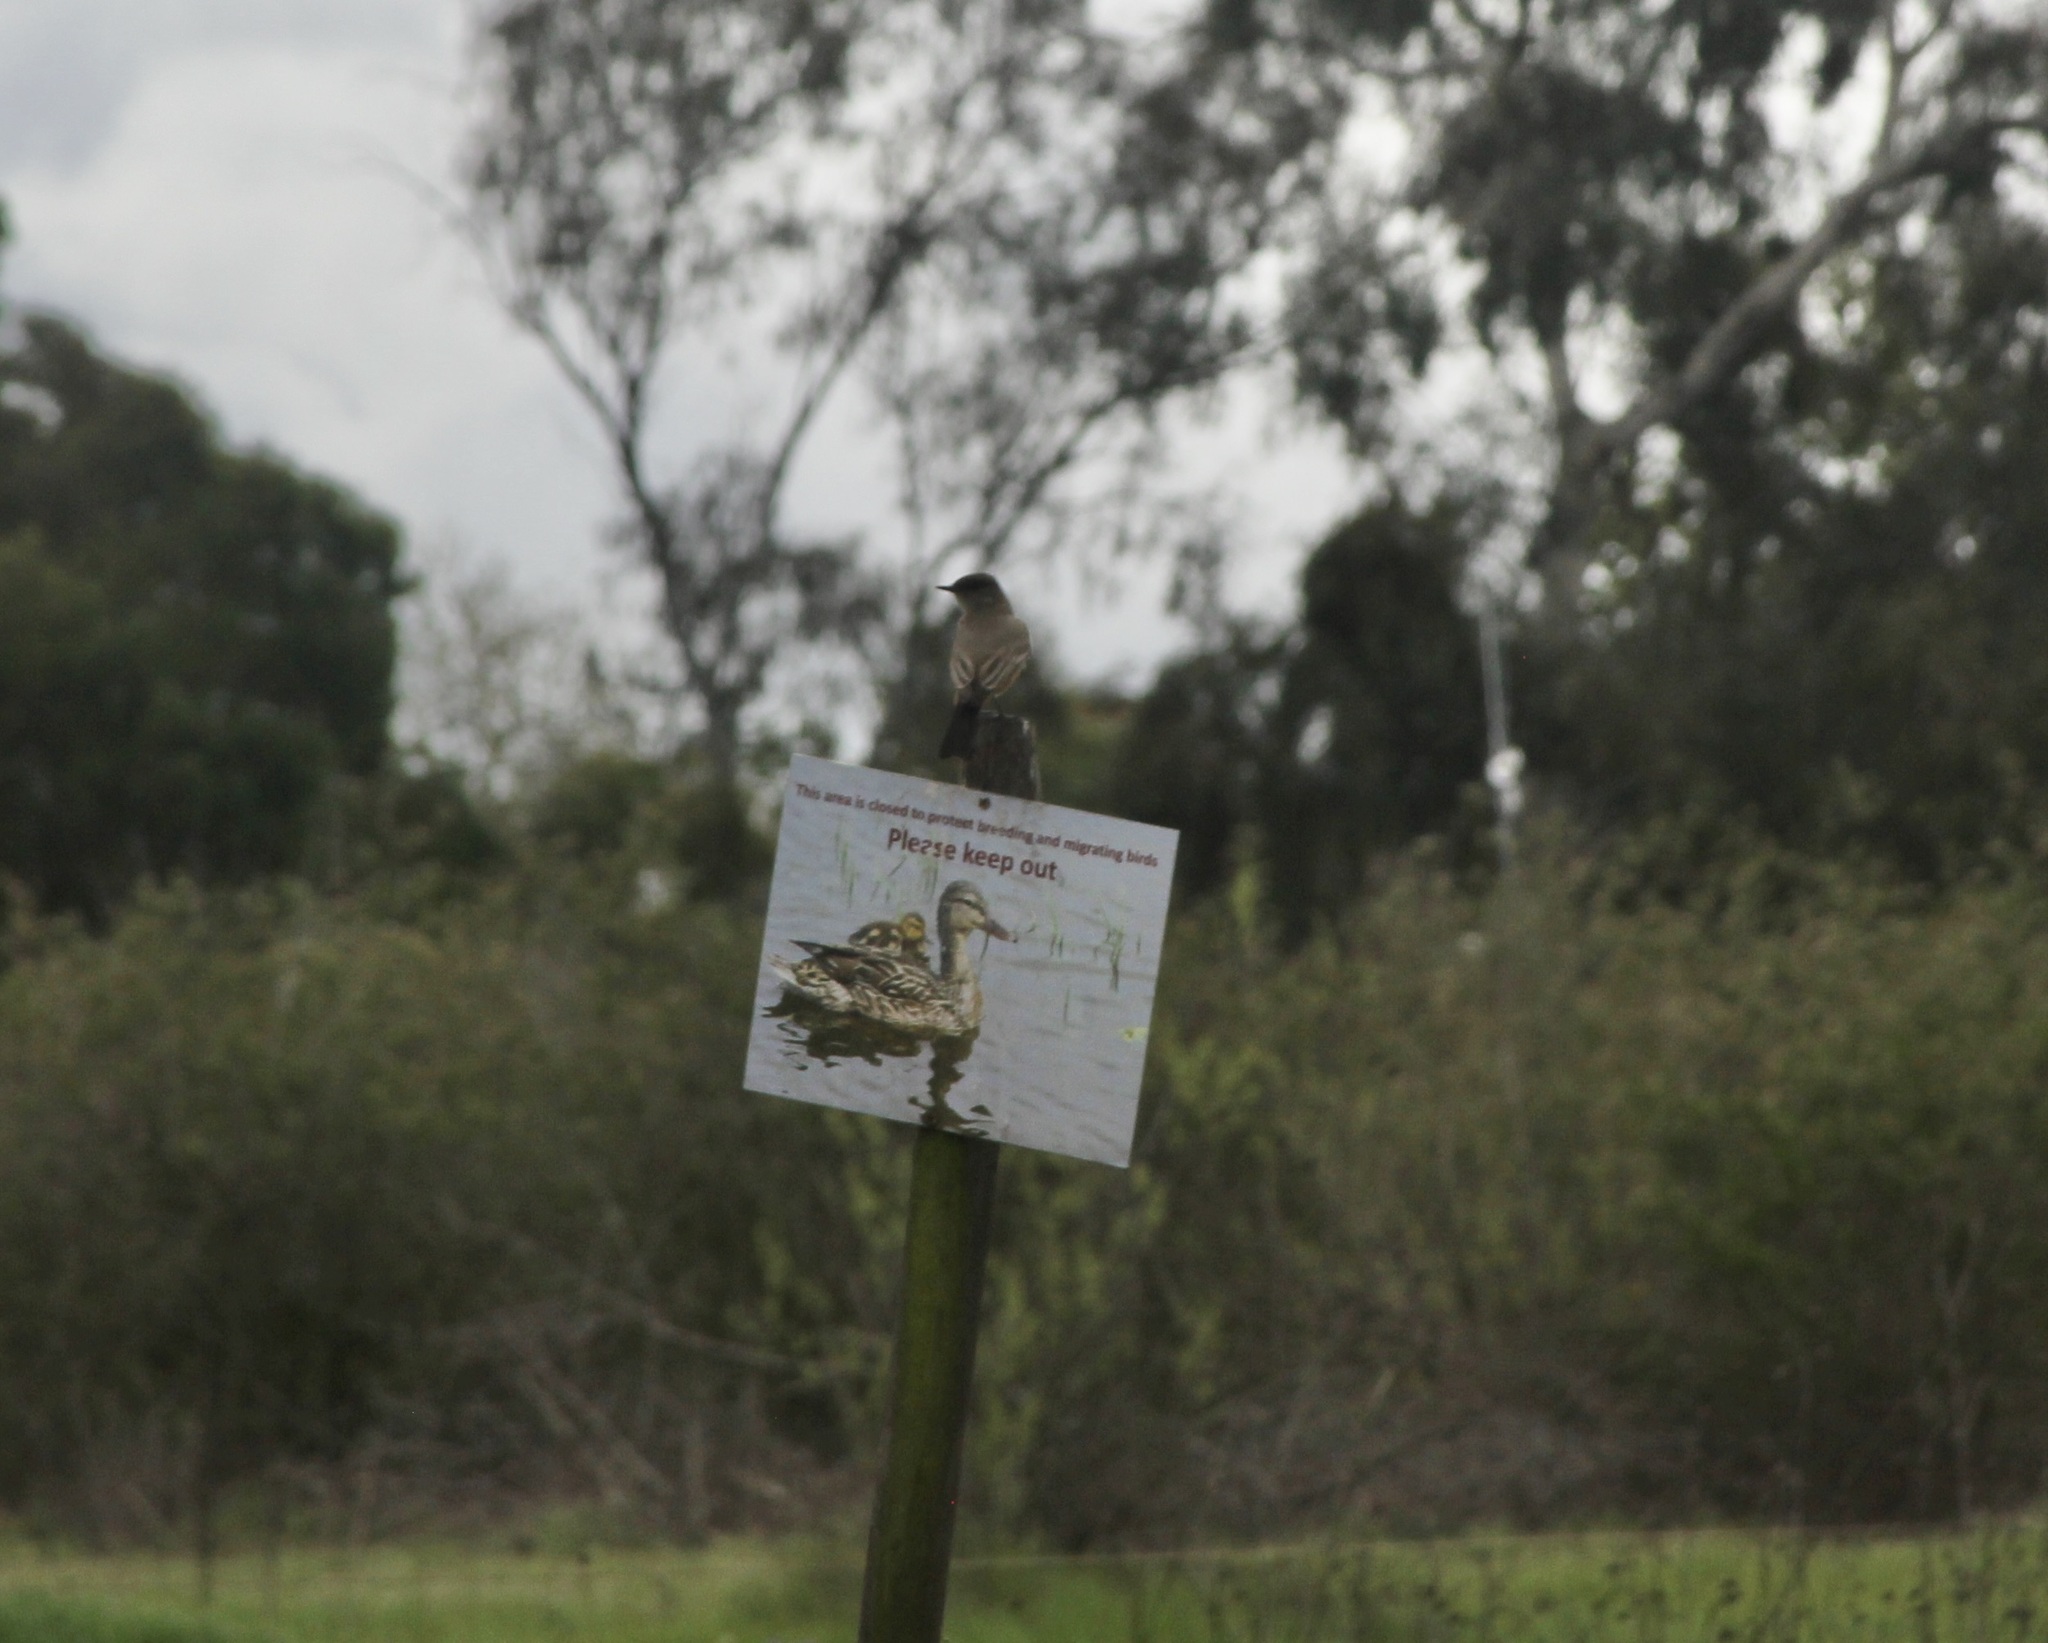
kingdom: Animalia
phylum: Chordata
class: Aves
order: Passeriformes
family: Tyrannidae
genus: Sayornis
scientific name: Sayornis saya
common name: Say's phoebe
